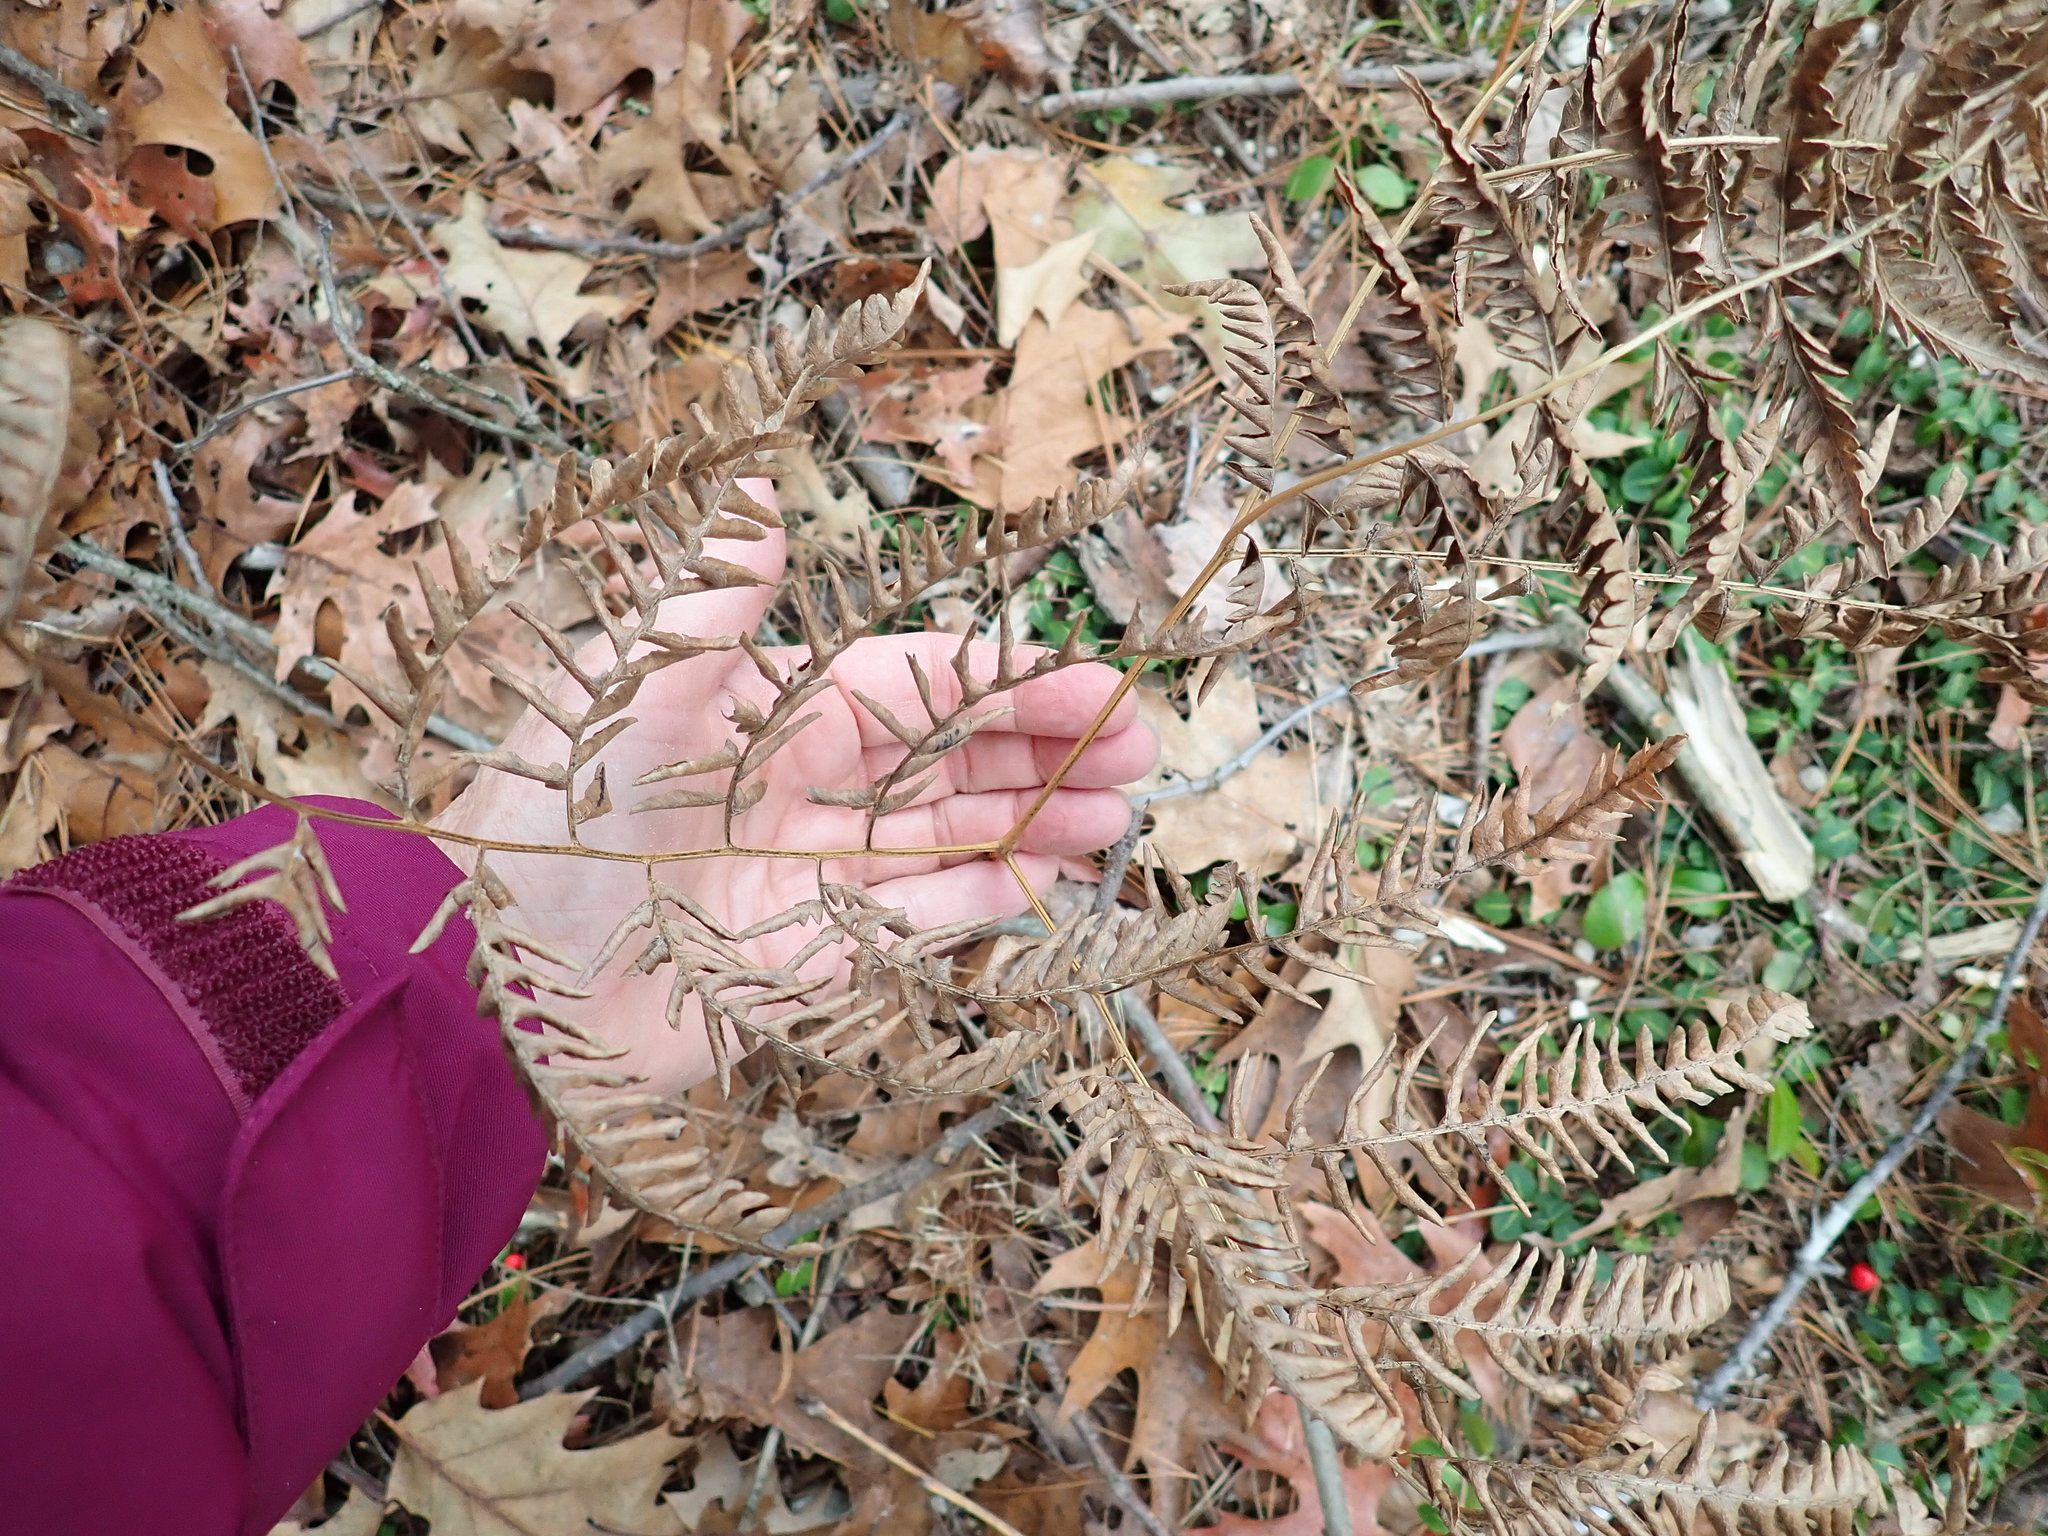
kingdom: Plantae
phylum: Tracheophyta
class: Polypodiopsida
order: Polypodiales
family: Dennstaedtiaceae
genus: Pteridium
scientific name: Pteridium aquilinum
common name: Bracken
